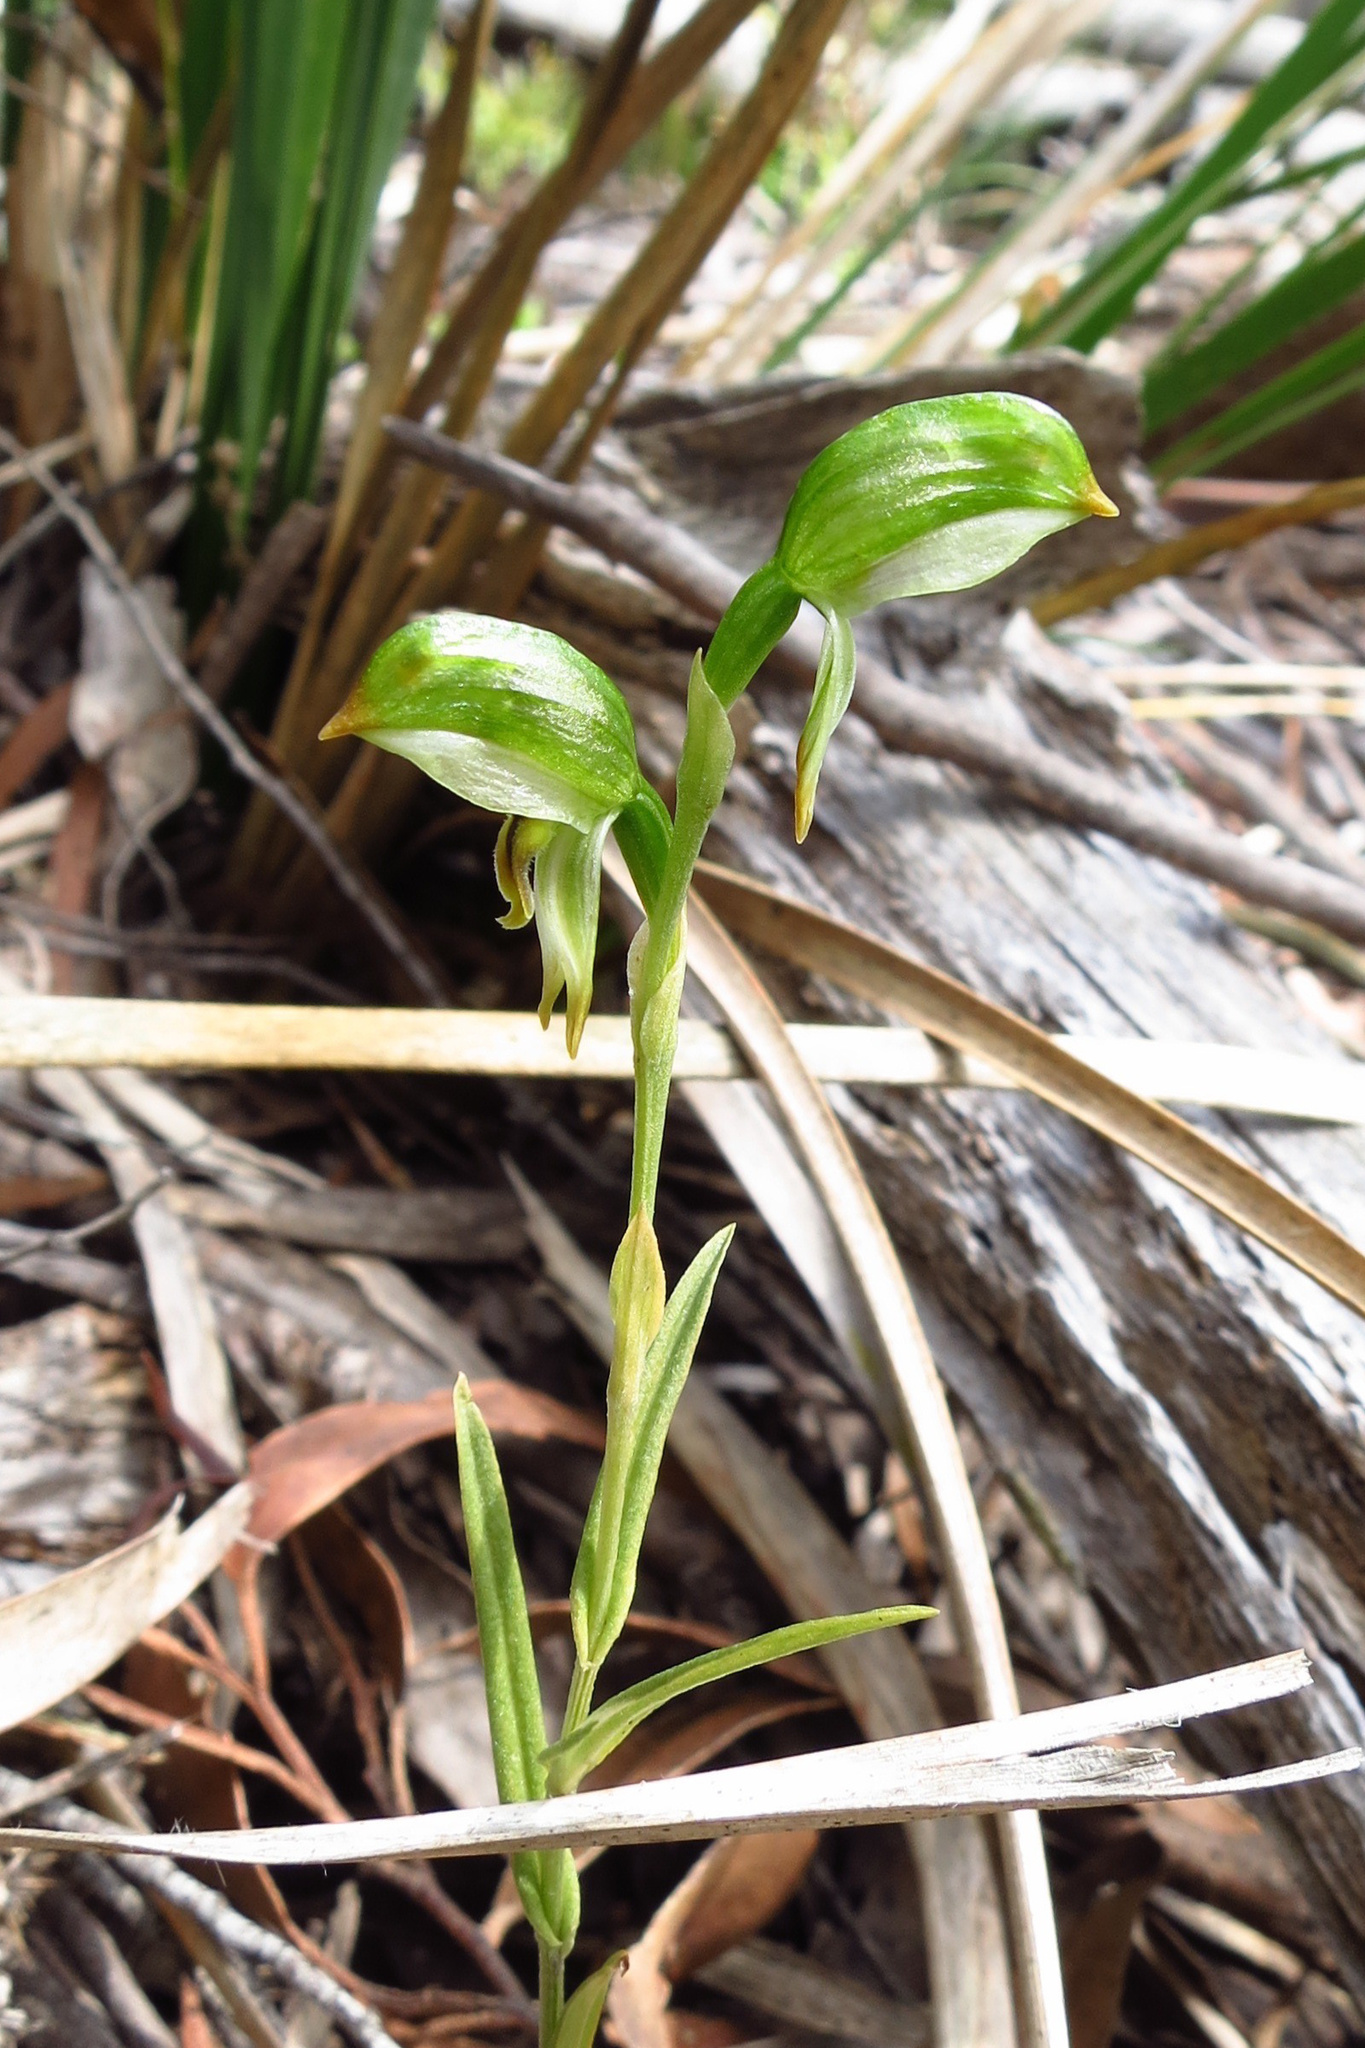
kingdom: Plantae
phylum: Tracheophyta
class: Liliopsida
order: Asparagales
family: Orchidaceae
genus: Pterostylis
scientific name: Pterostylis melagramma
